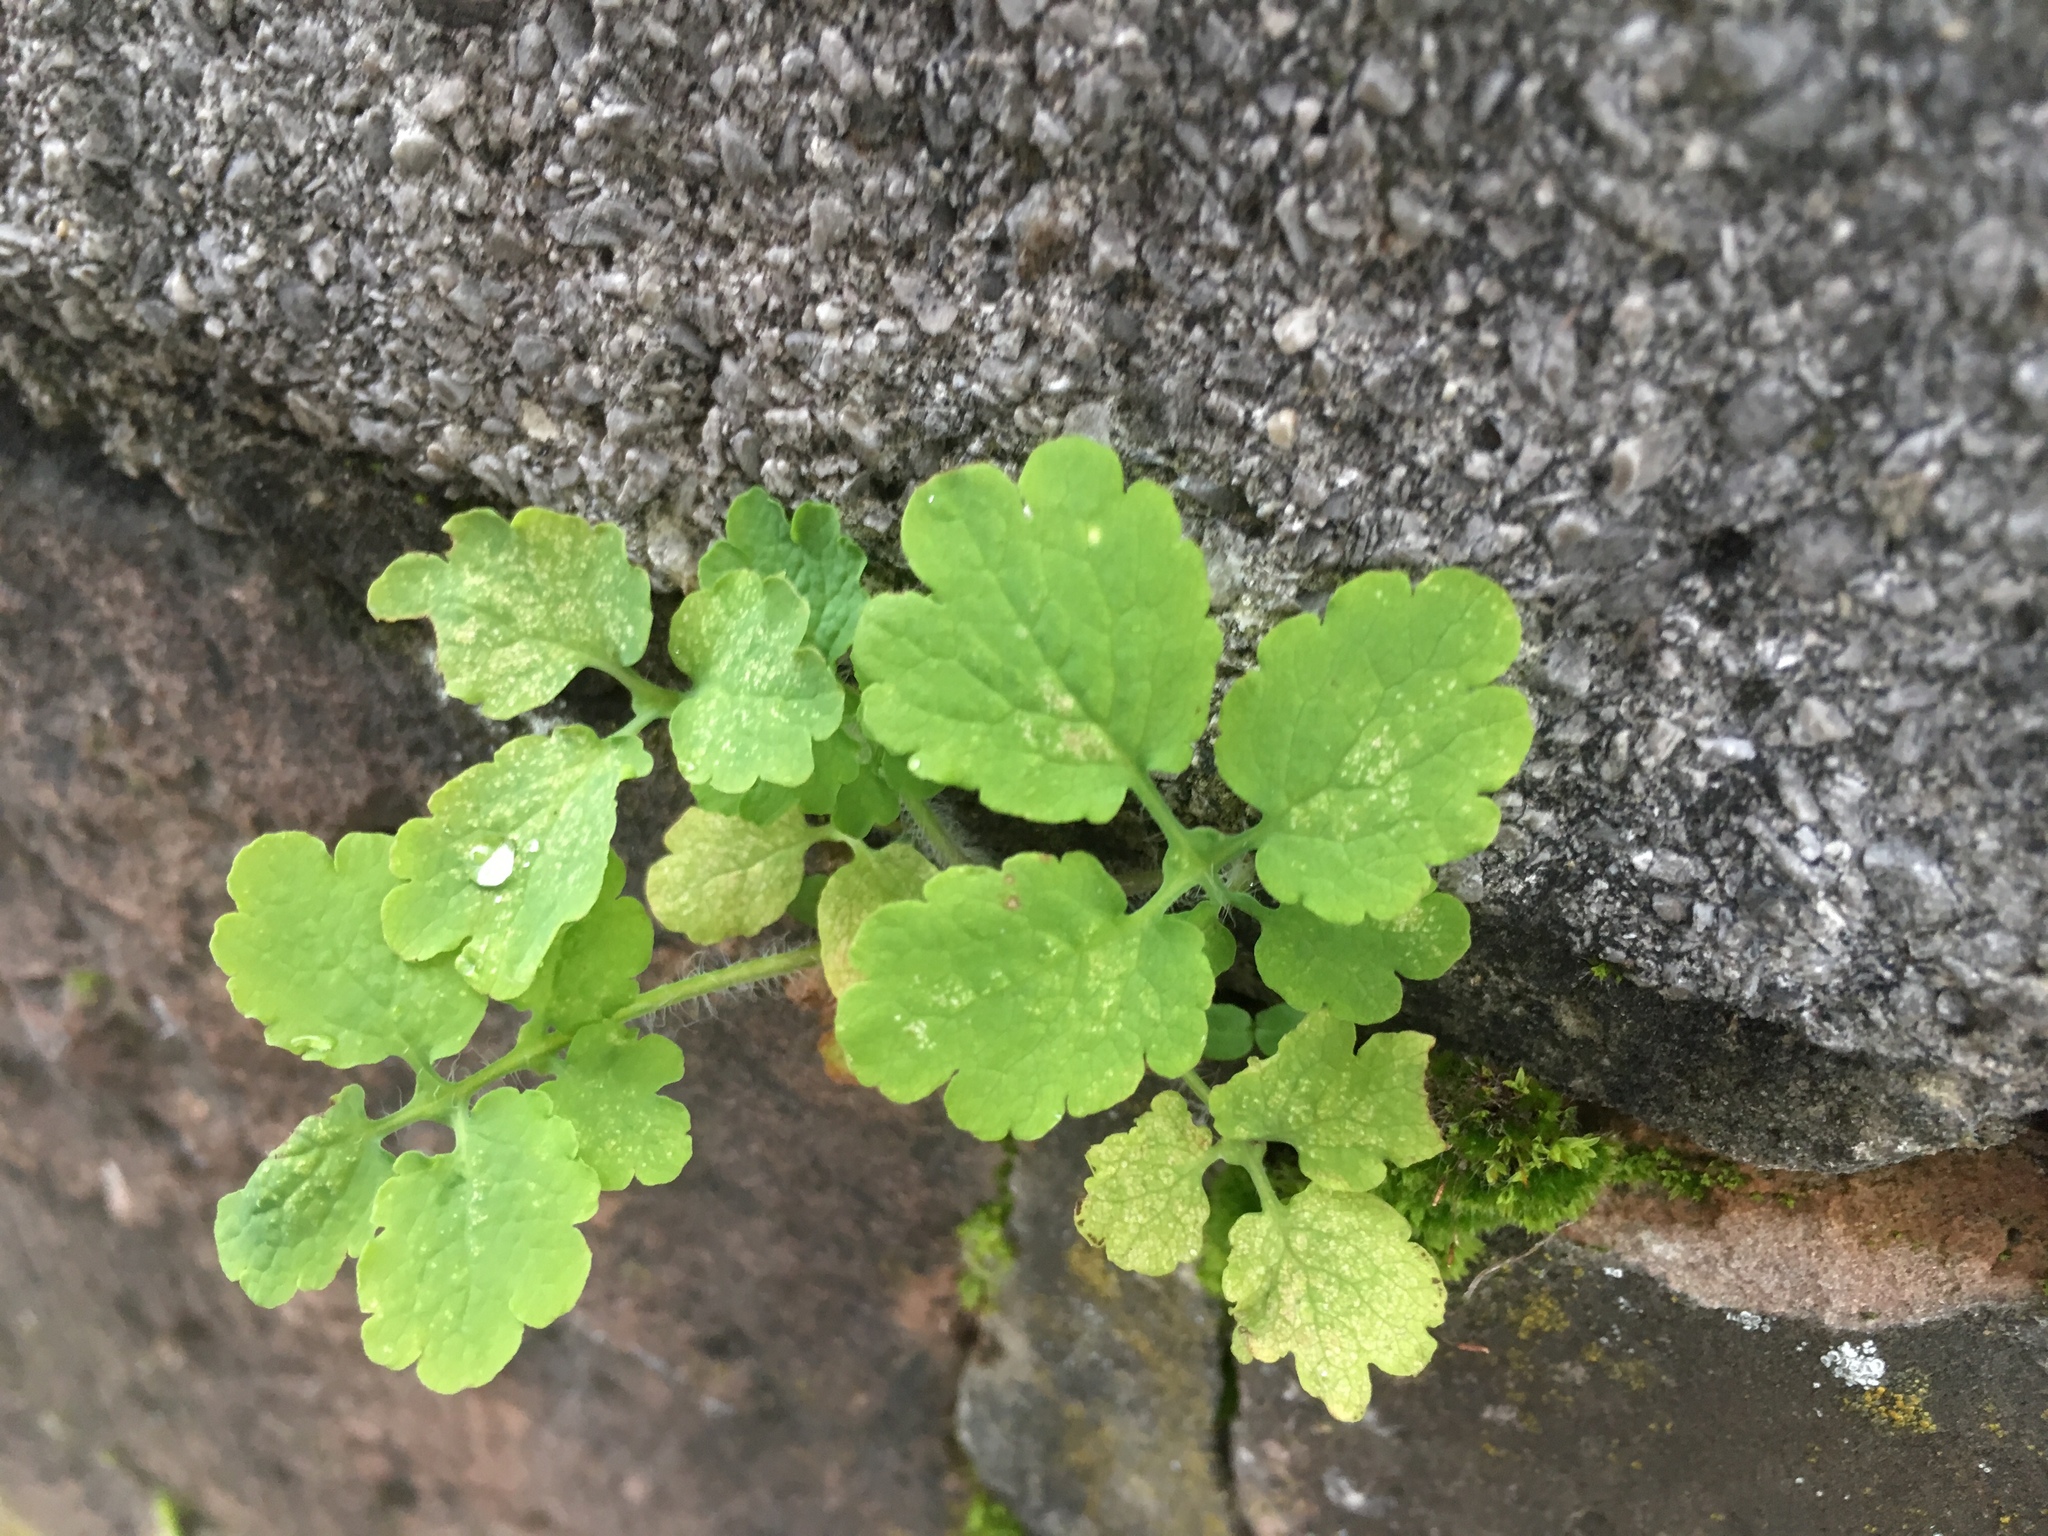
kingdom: Plantae
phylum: Tracheophyta
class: Magnoliopsida
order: Ranunculales
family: Papaveraceae
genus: Chelidonium
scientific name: Chelidonium majus
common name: Greater celandine
